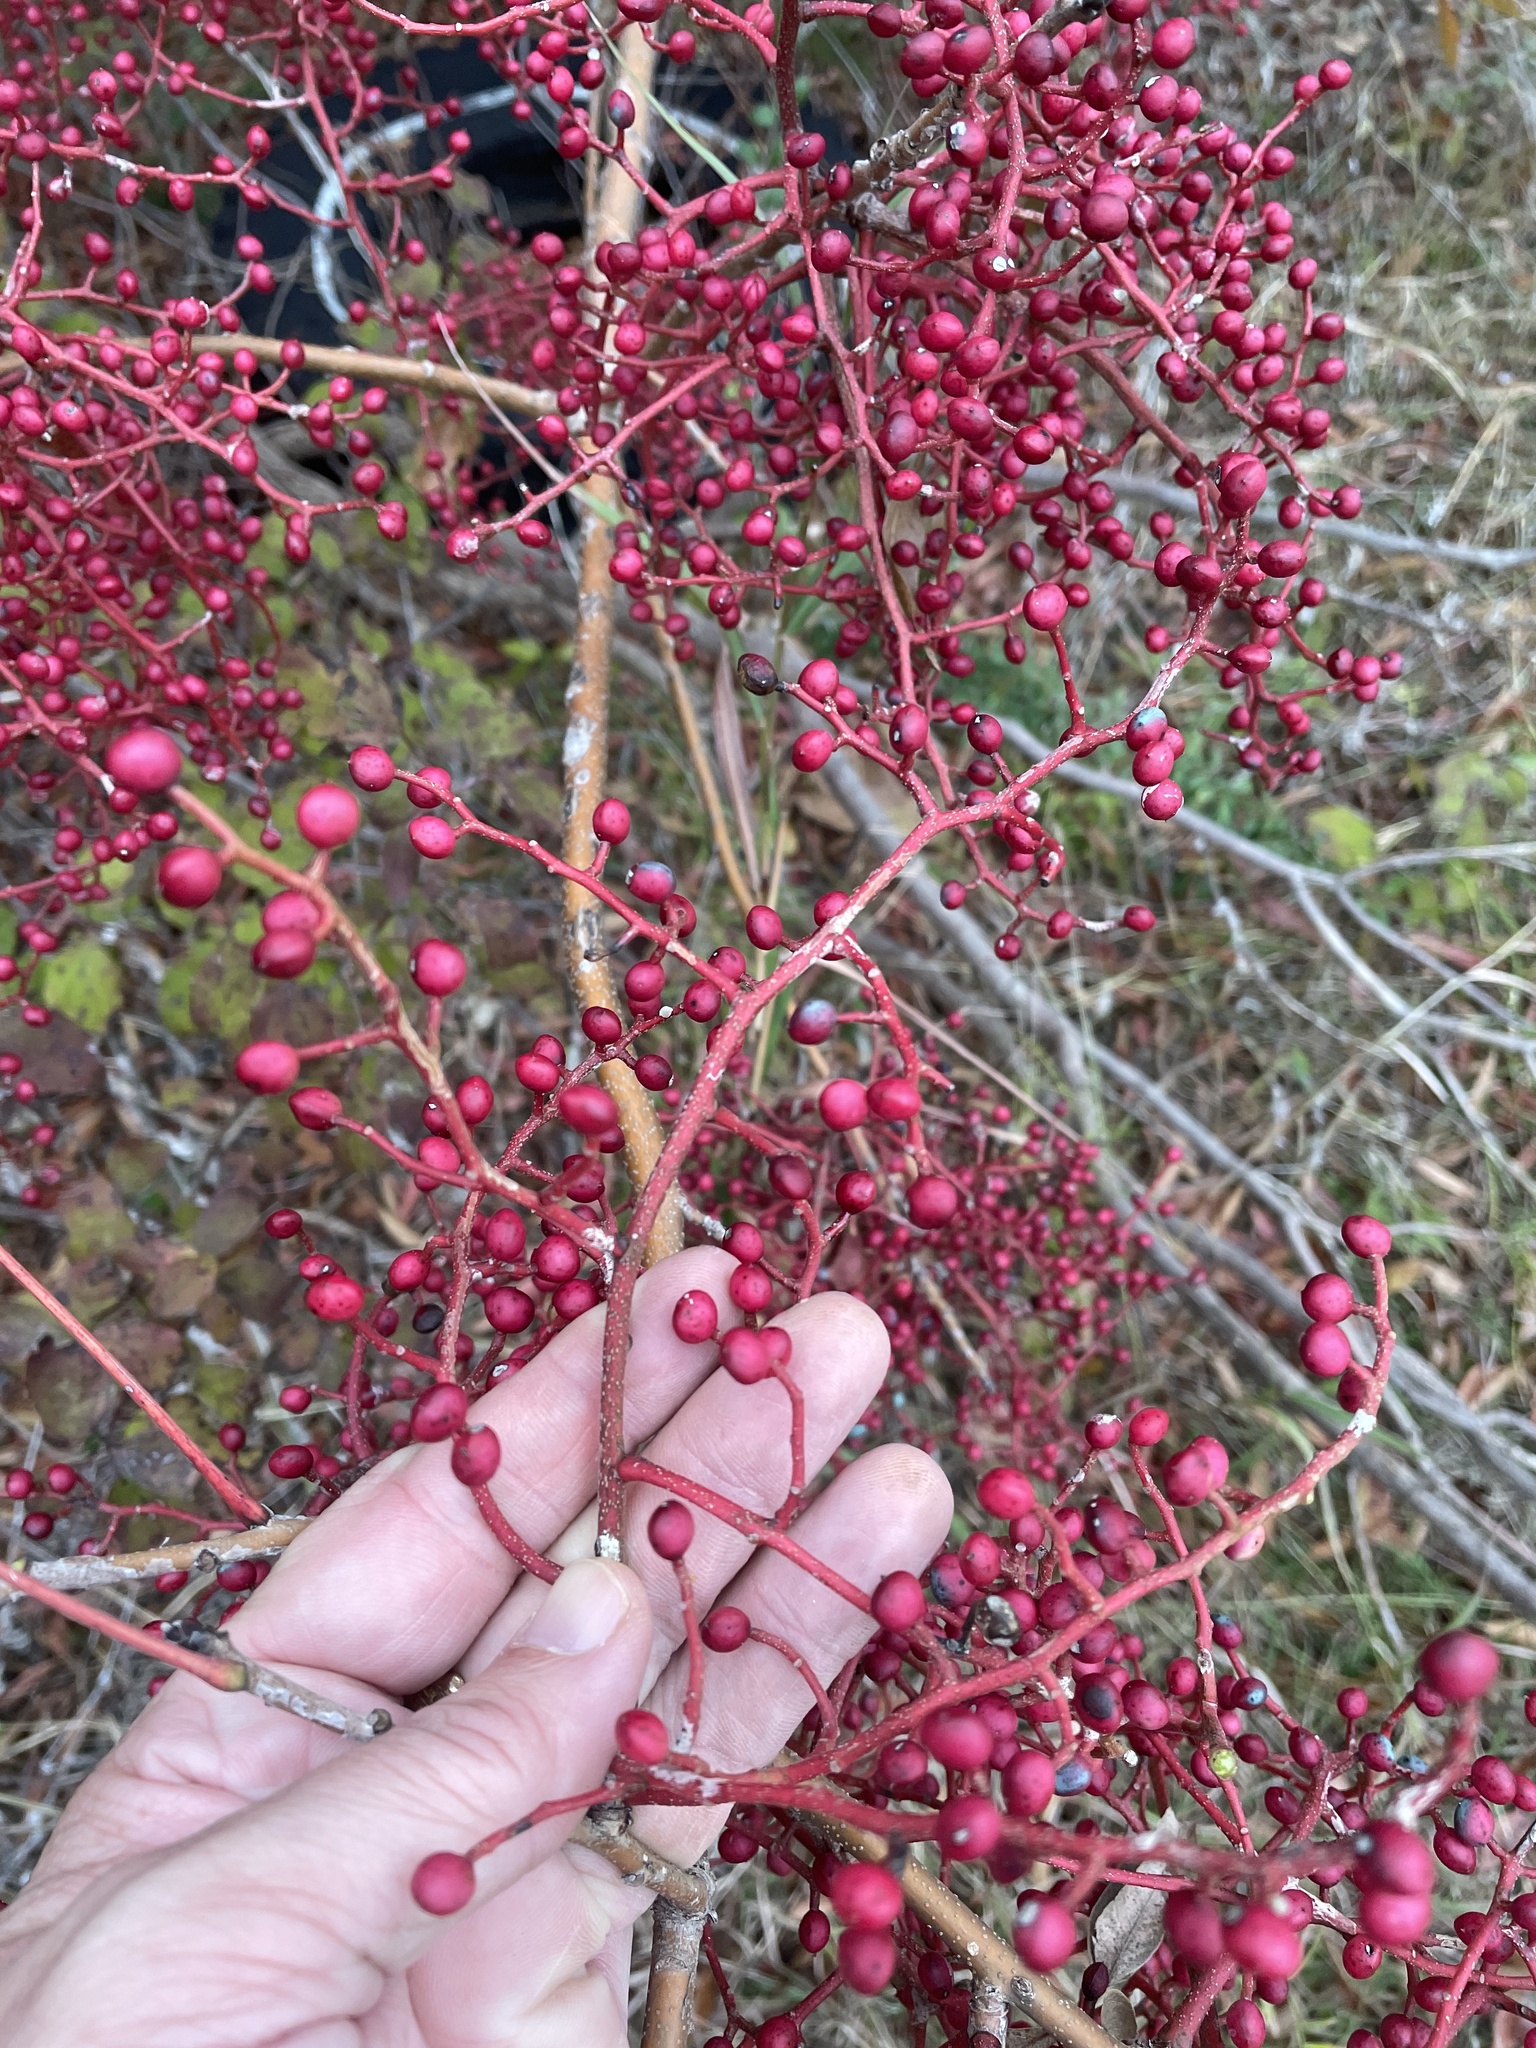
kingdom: Plantae
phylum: Tracheophyta
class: Magnoliopsida
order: Sapindales
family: Anacardiaceae
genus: Pistacia
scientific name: Pistacia chinensis
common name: Chinese pistache
